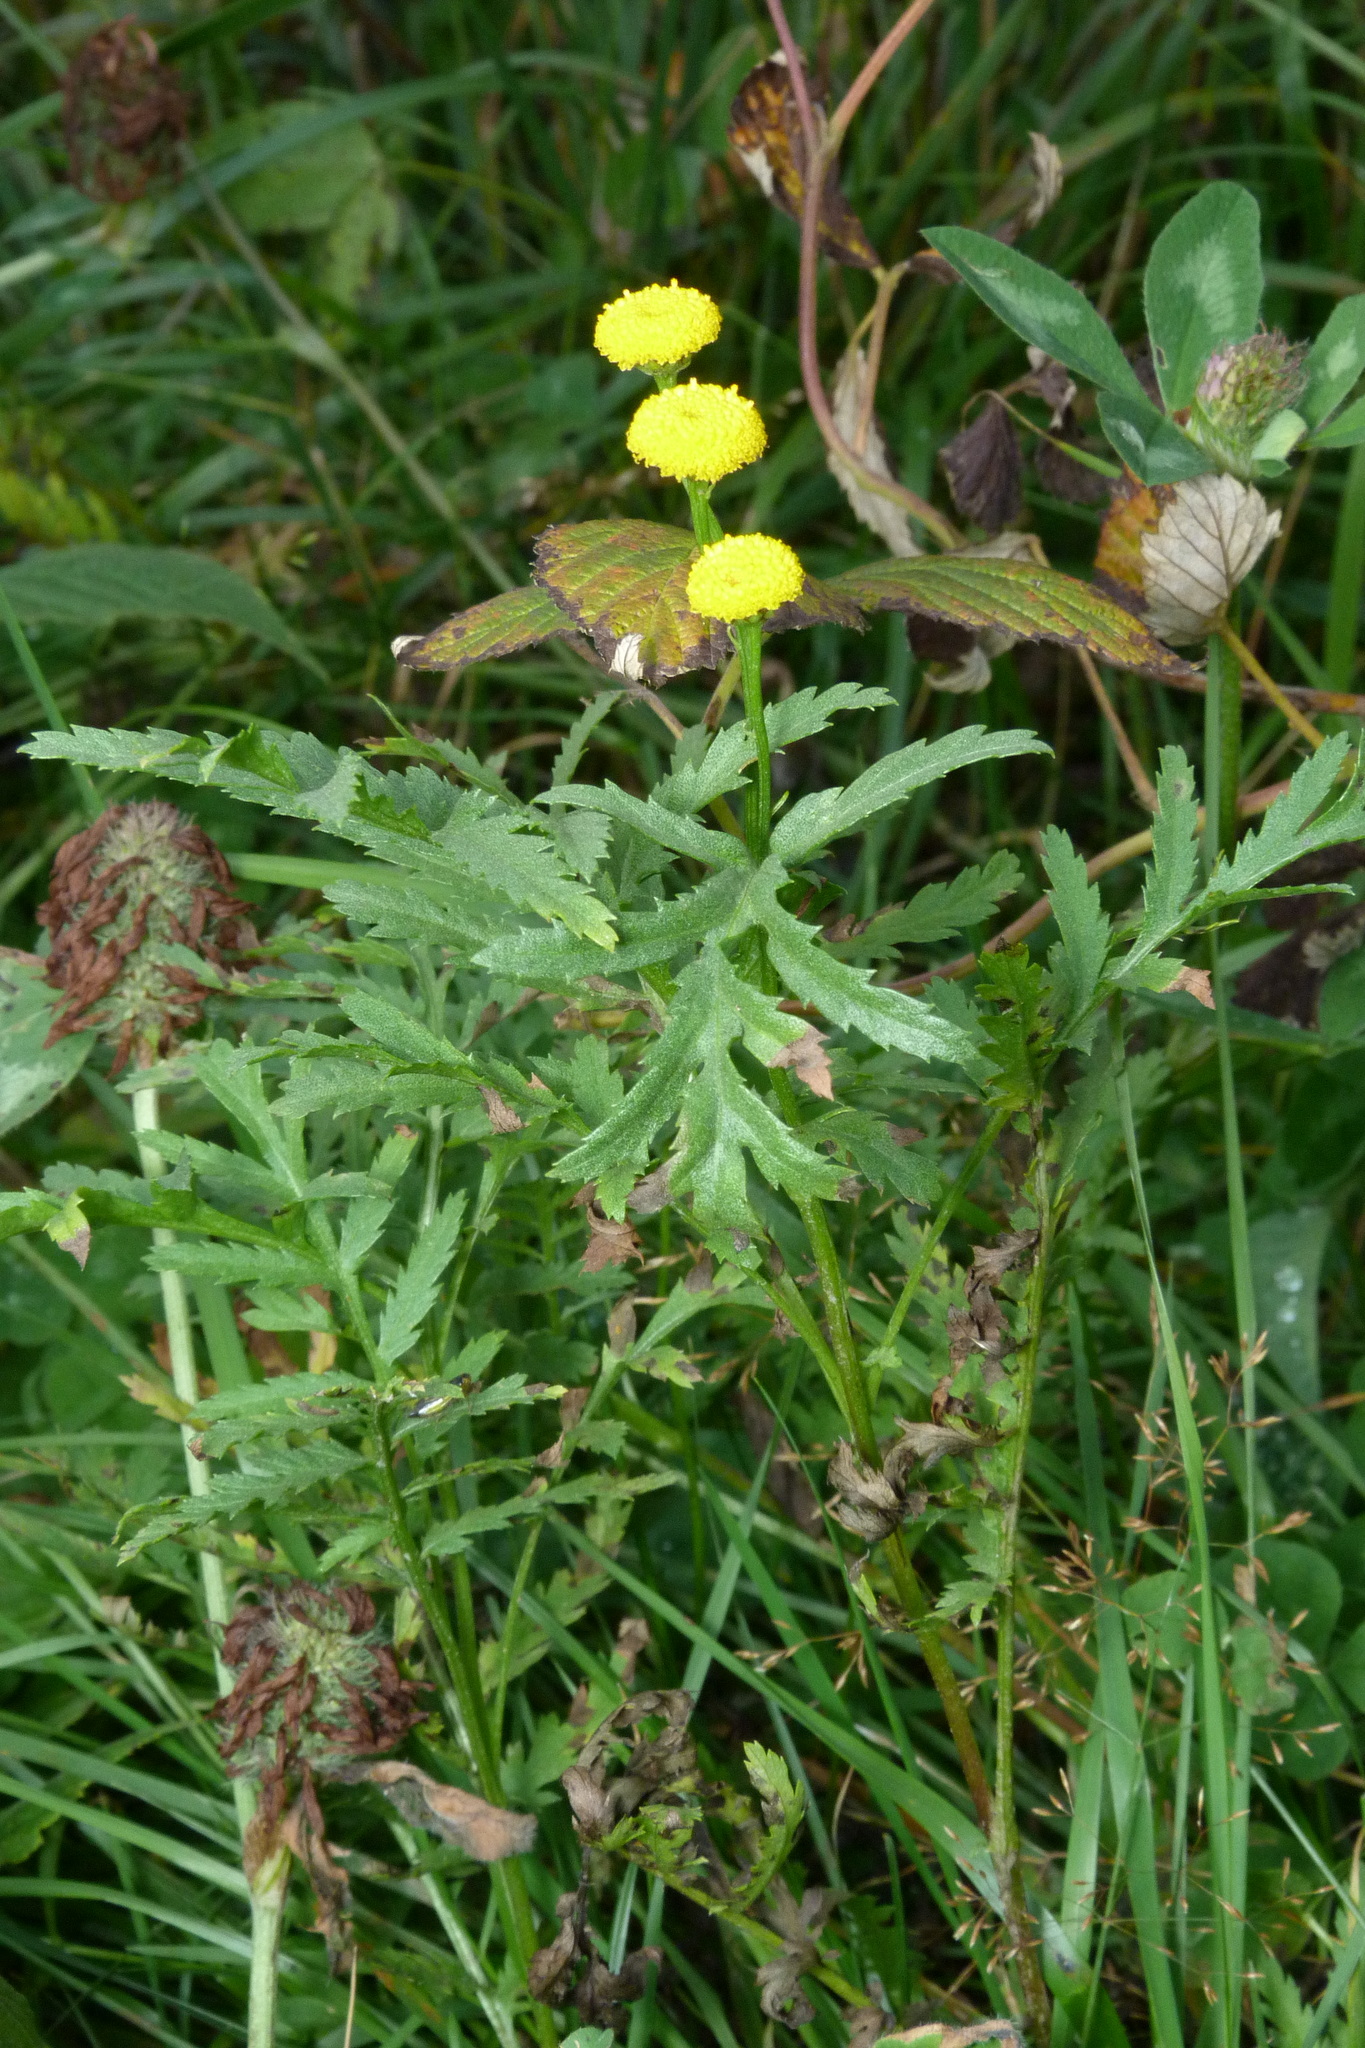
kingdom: Plantae
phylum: Tracheophyta
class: Magnoliopsida
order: Asterales
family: Asteraceae
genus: Tanacetum
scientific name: Tanacetum vulgare
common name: Common tansy
